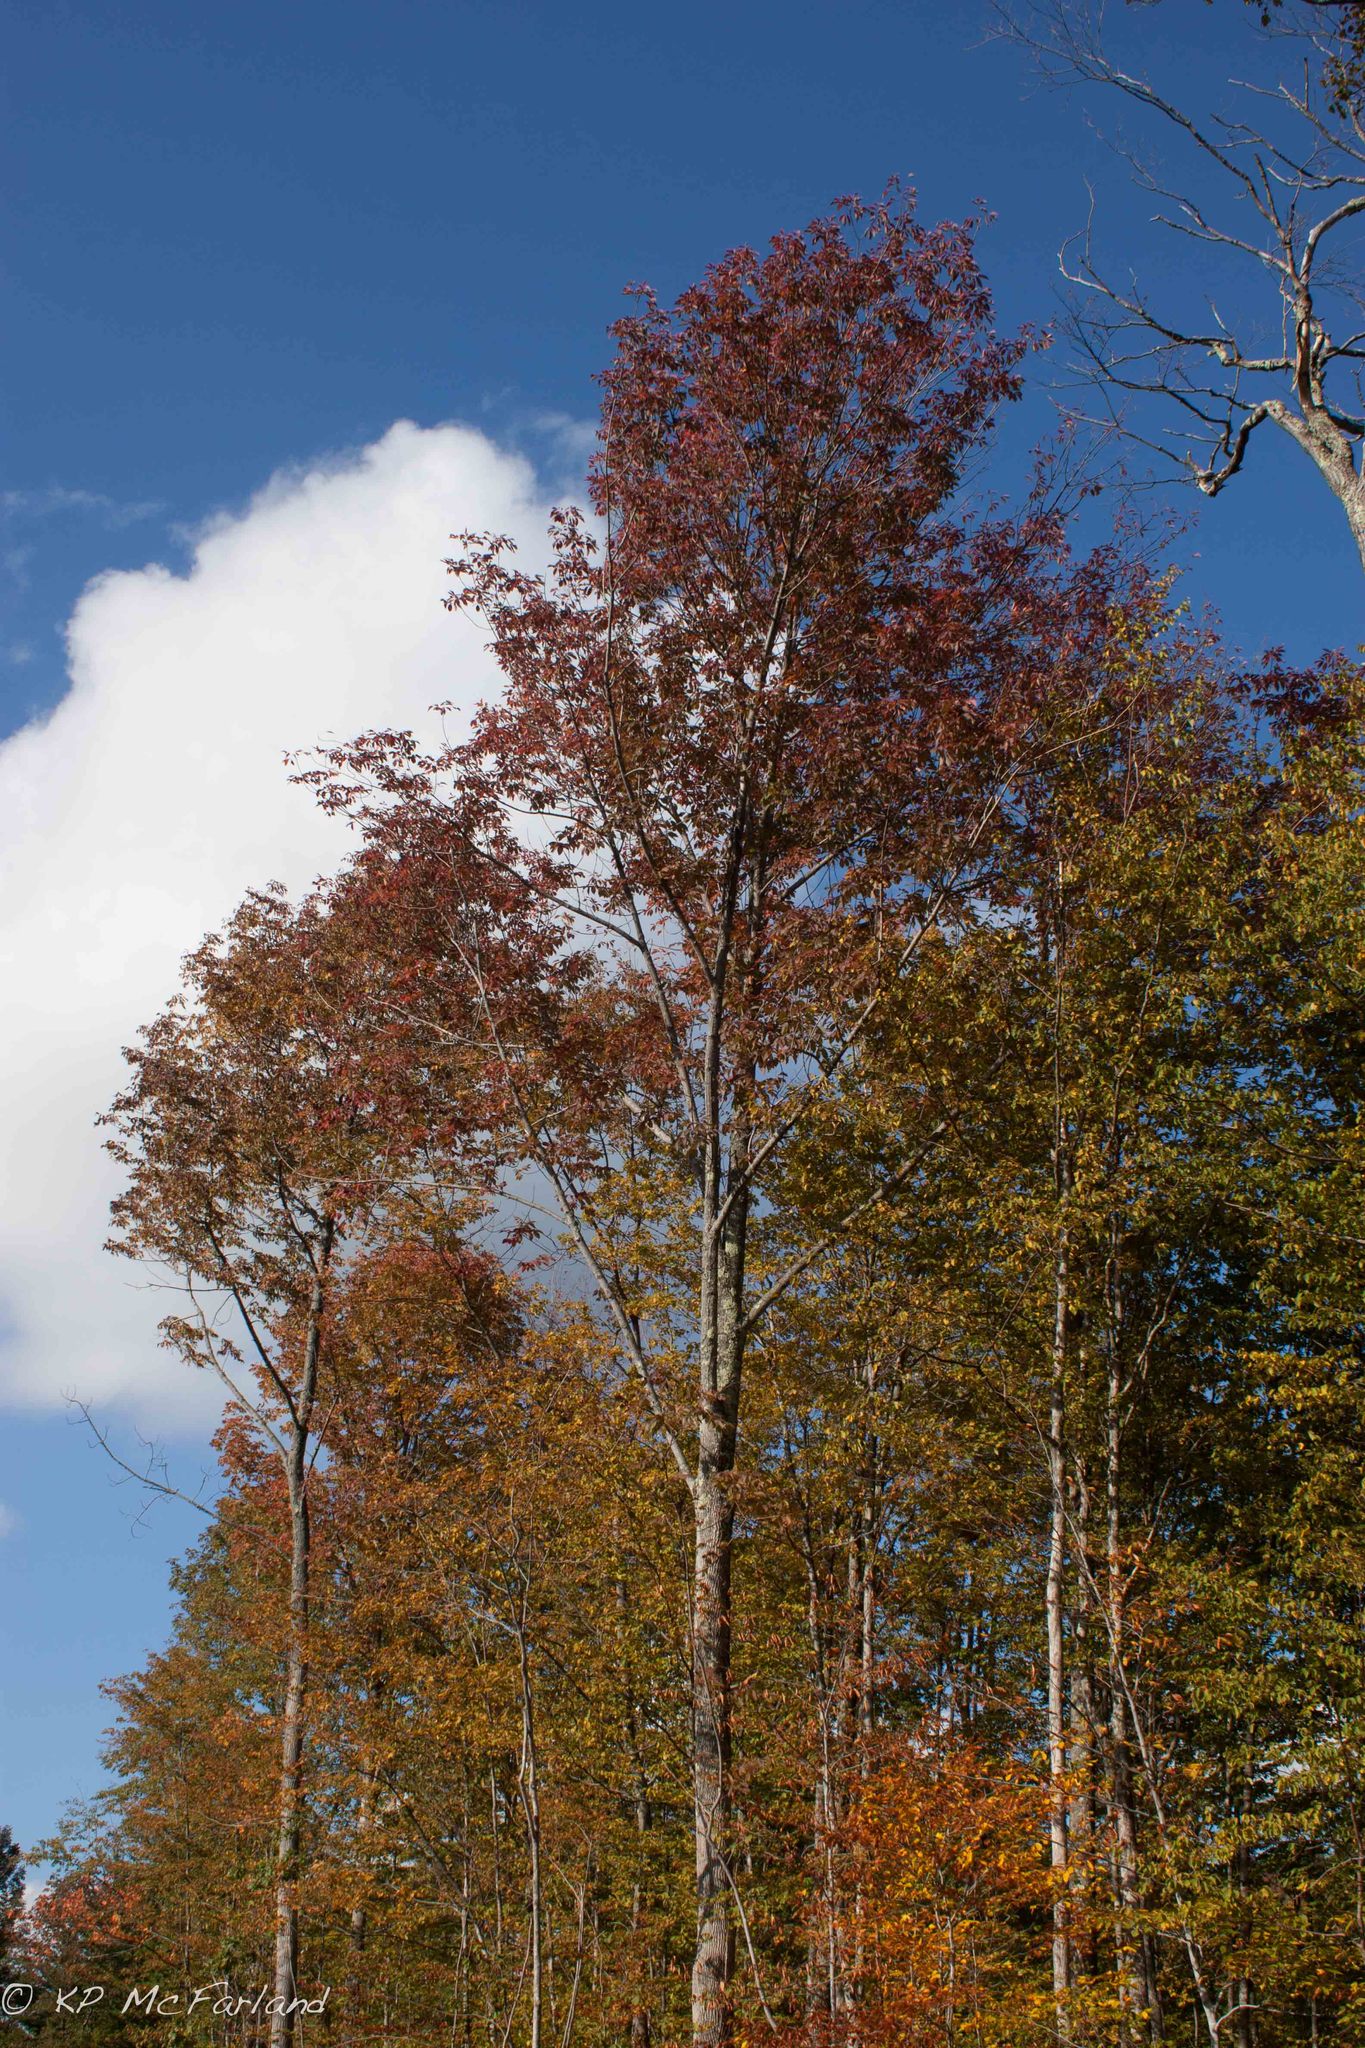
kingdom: Plantae
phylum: Tracheophyta
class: Magnoliopsida
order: Lamiales
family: Oleaceae
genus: Fraxinus
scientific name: Fraxinus americana
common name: White ash
